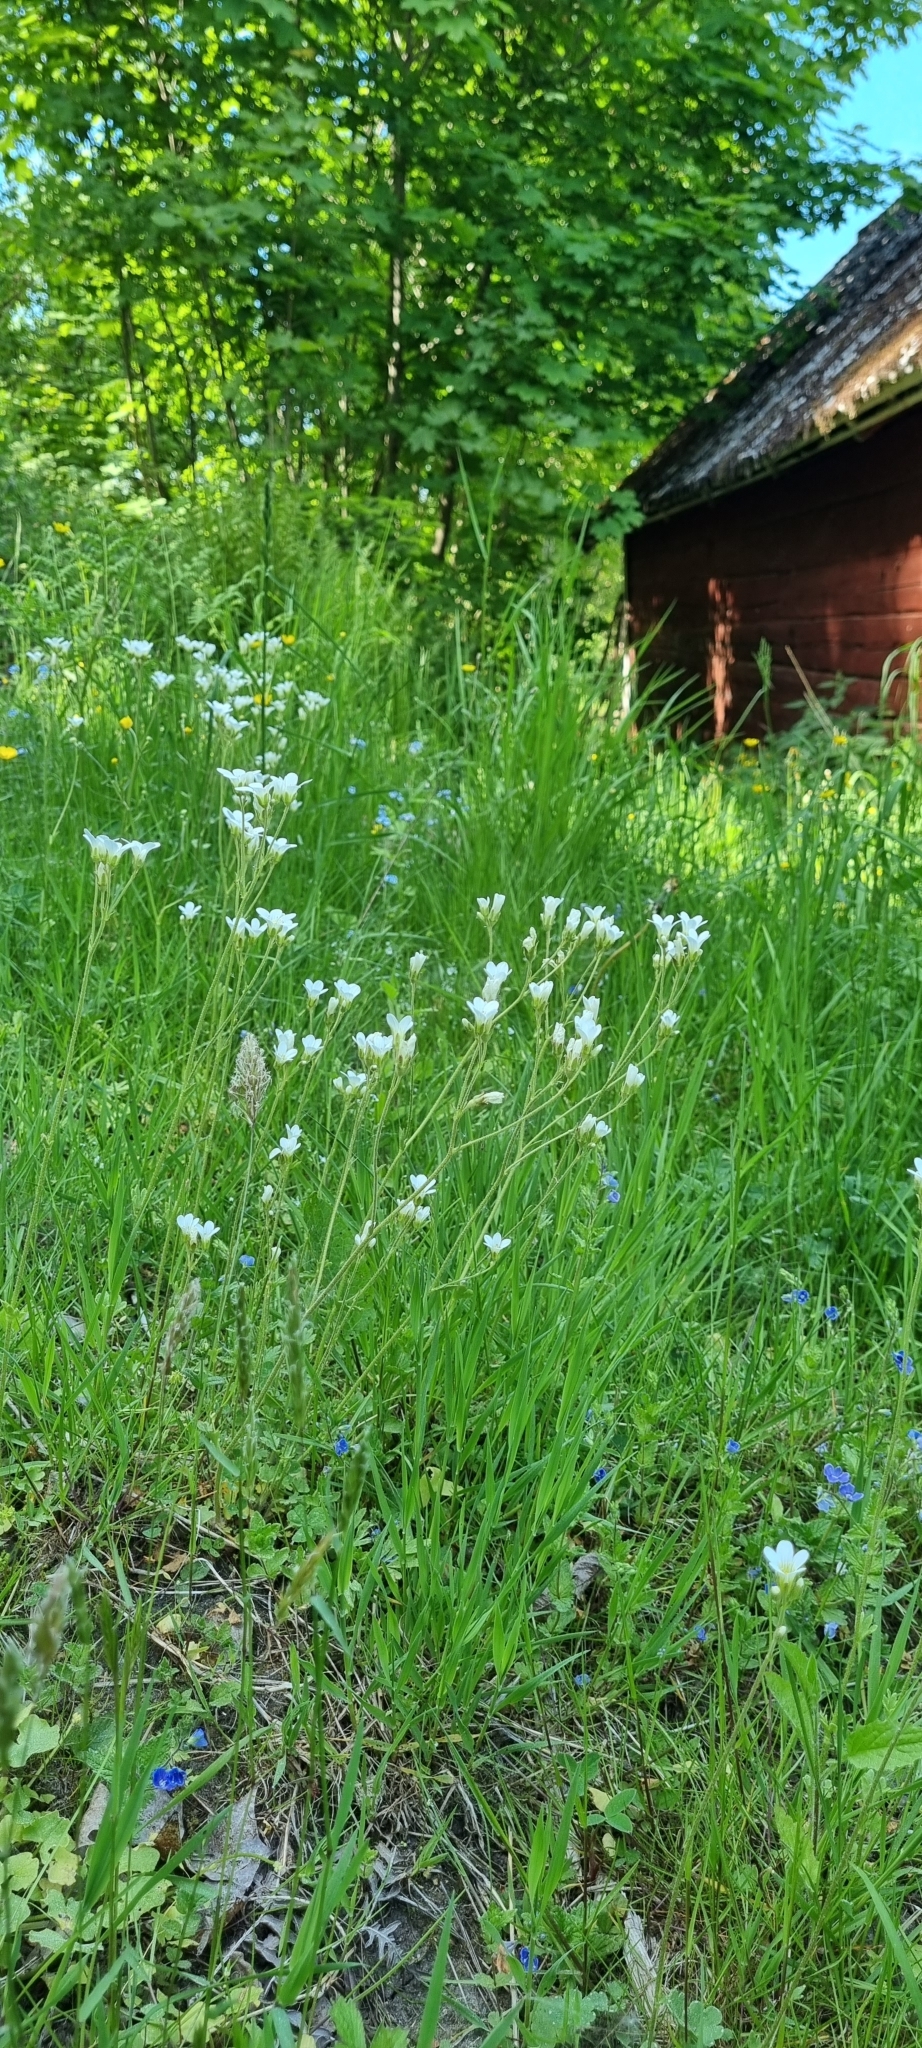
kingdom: Plantae
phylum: Tracheophyta
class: Magnoliopsida
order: Saxifragales
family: Saxifragaceae
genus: Saxifraga
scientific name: Saxifraga granulata
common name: Meadow saxifrage
